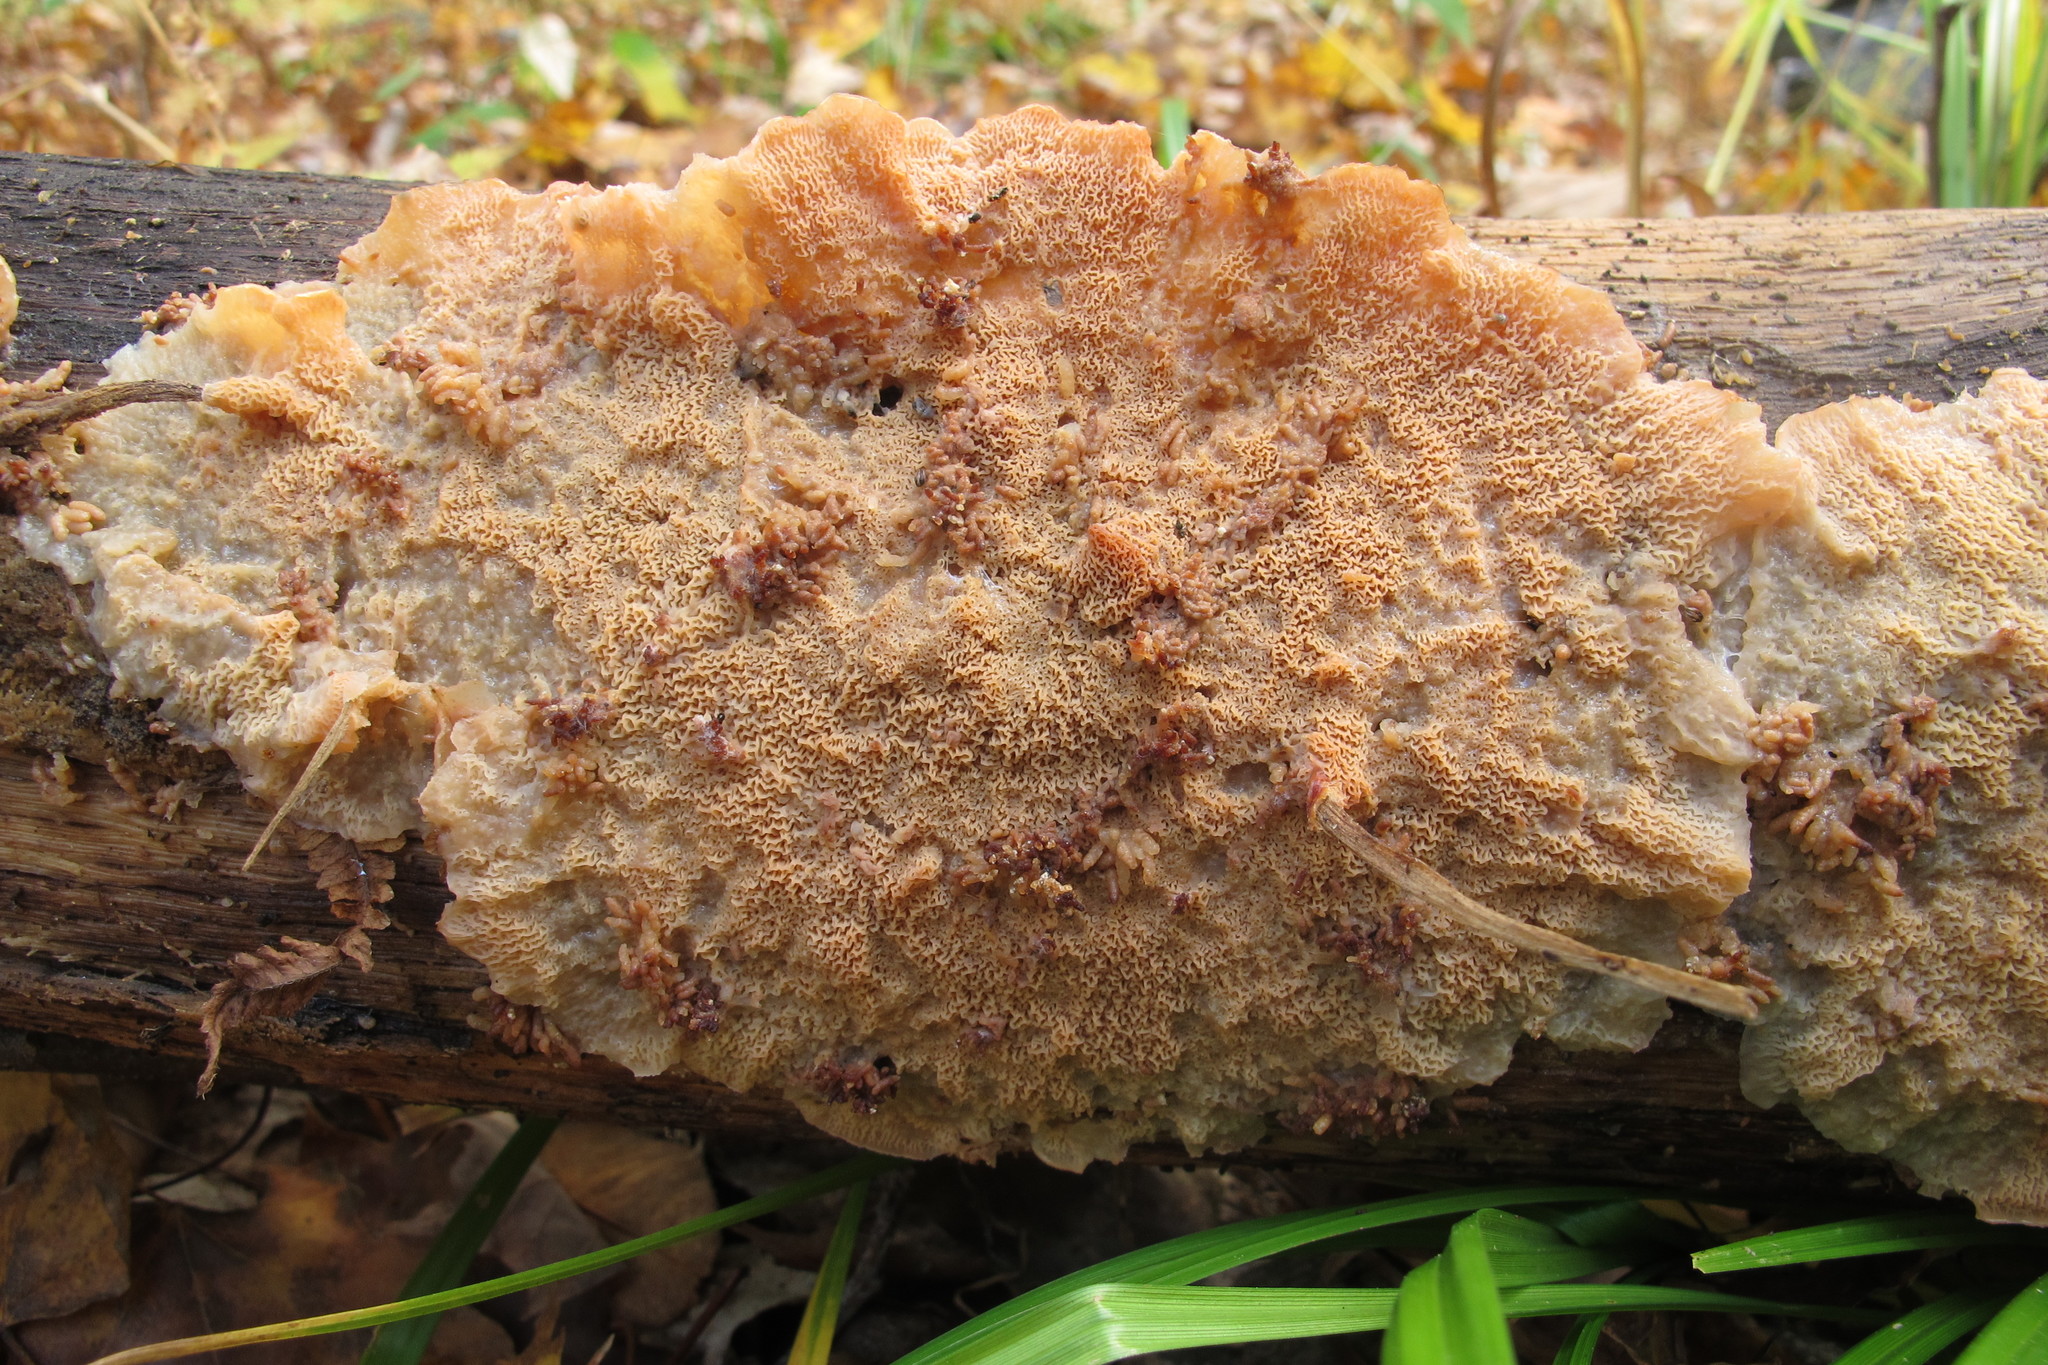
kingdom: Fungi
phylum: Basidiomycota
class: Agaricomycetes
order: Polyporales
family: Meruliaceae
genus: Phlebia
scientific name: Phlebia tremellosa
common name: Jelly rot
